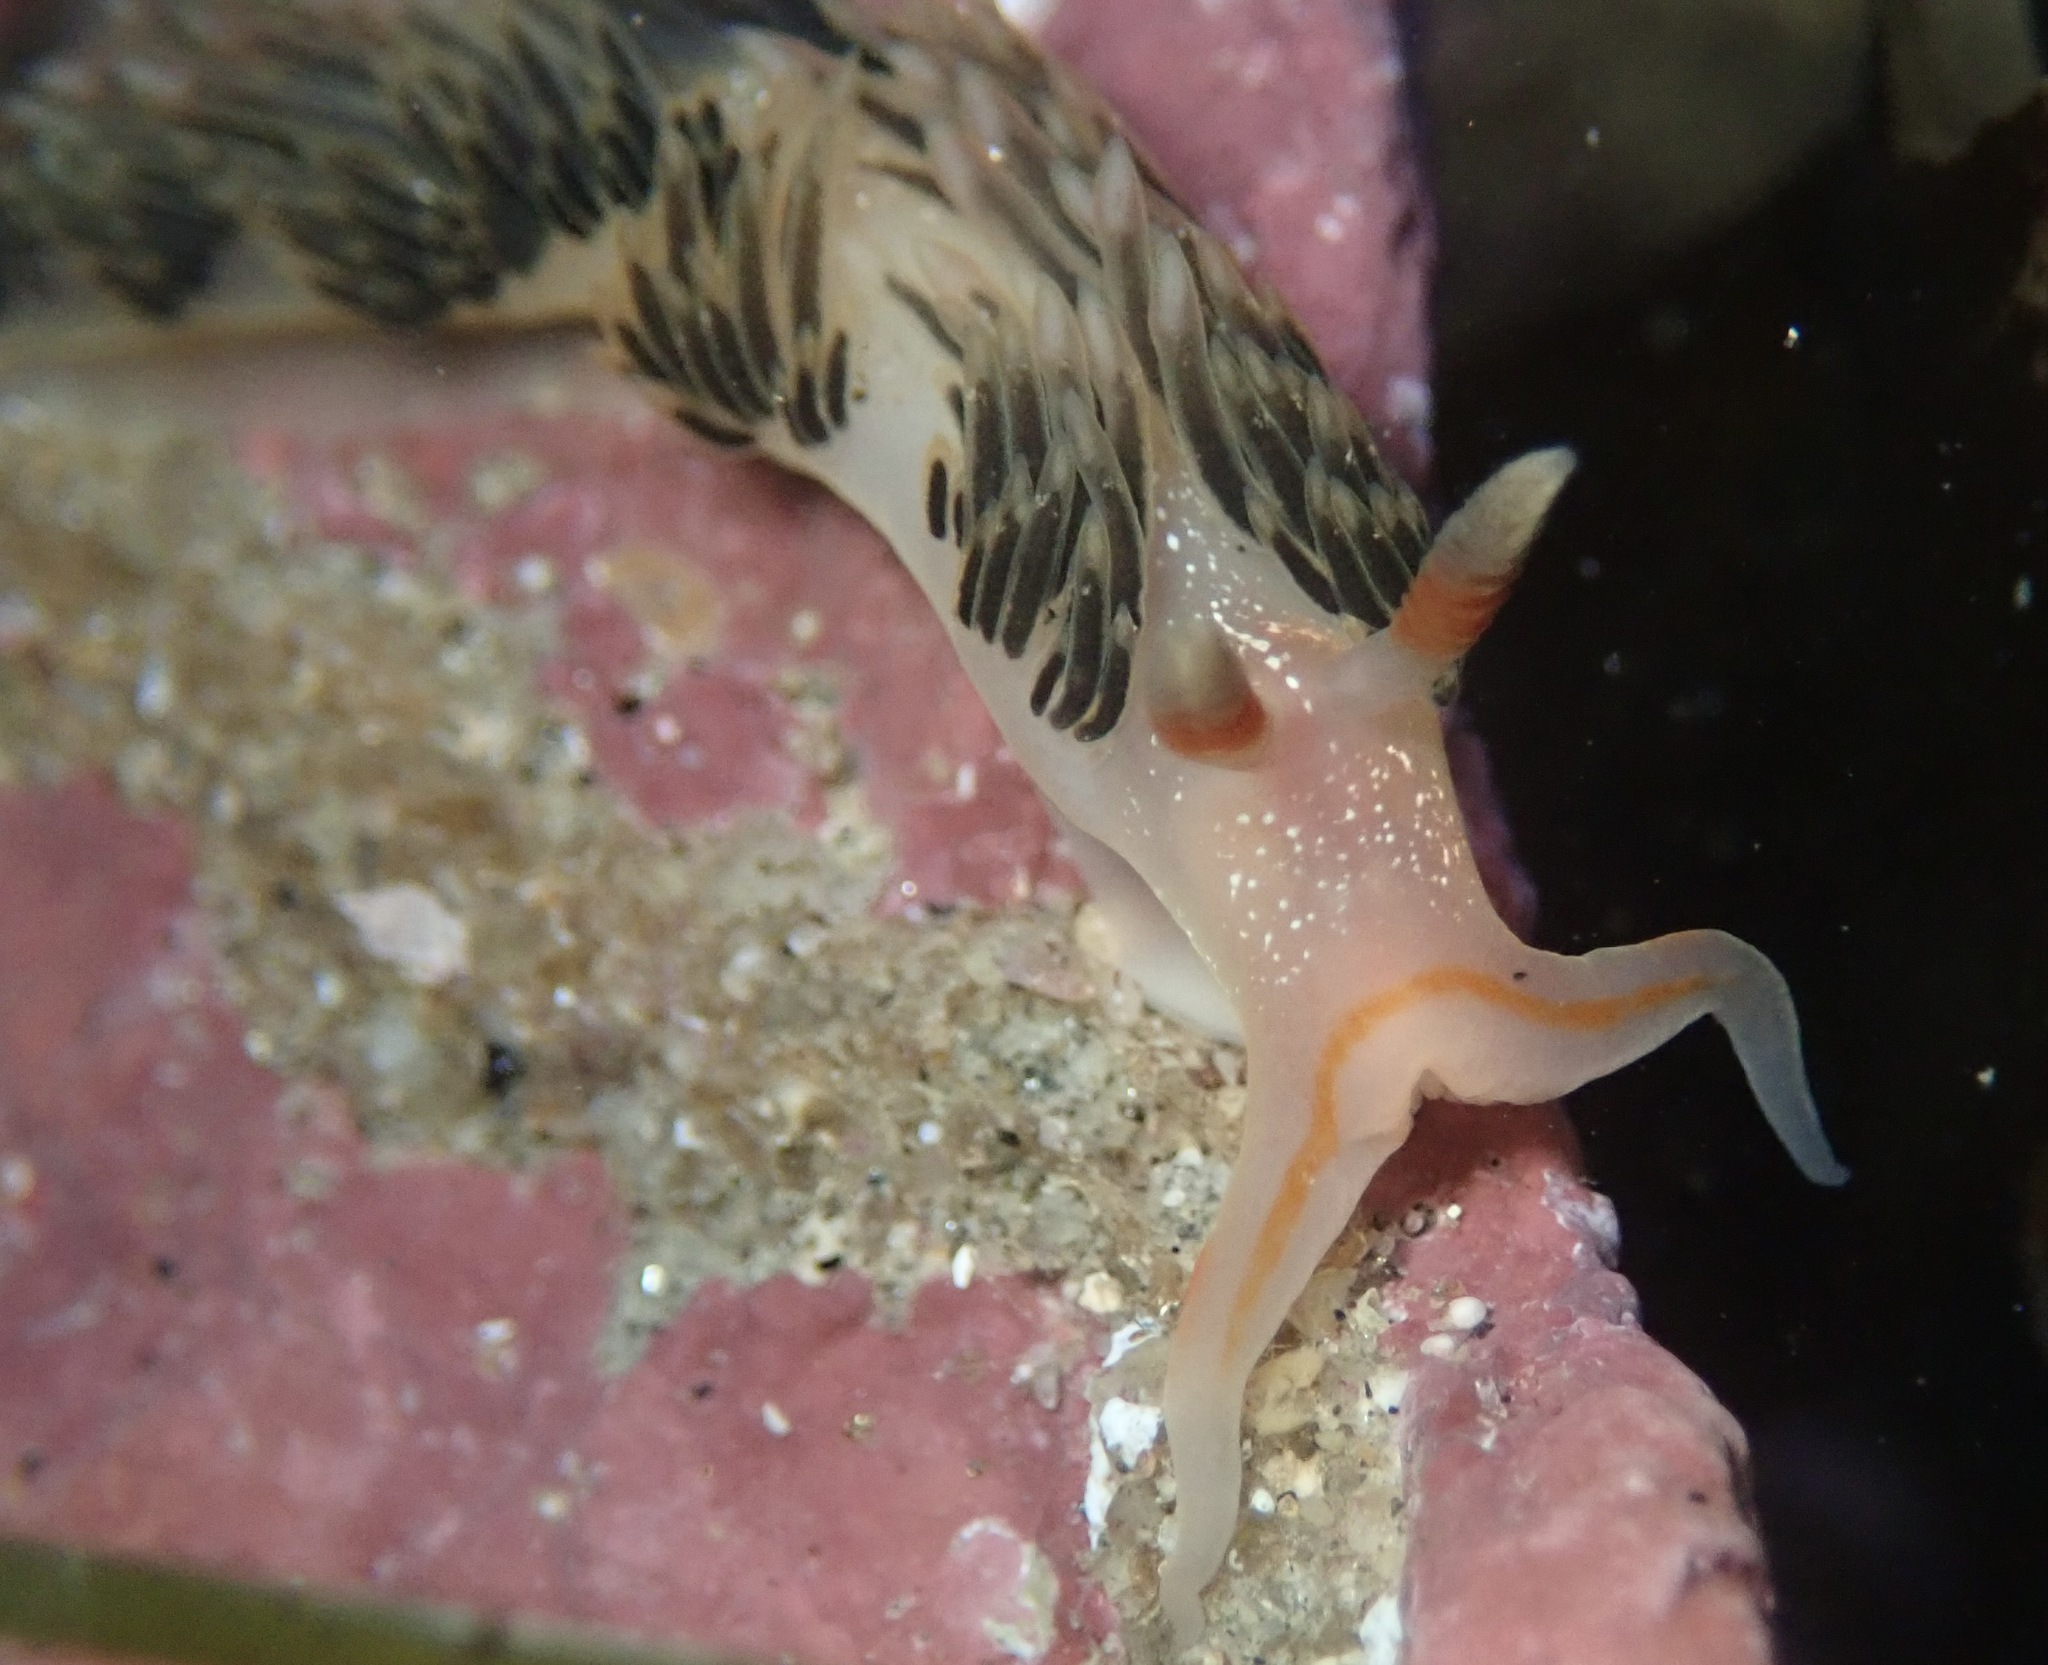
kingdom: Animalia
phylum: Mollusca
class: Gastropoda
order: Nudibranchia
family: Facelinidae
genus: Phidiana
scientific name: Phidiana hiltoni
